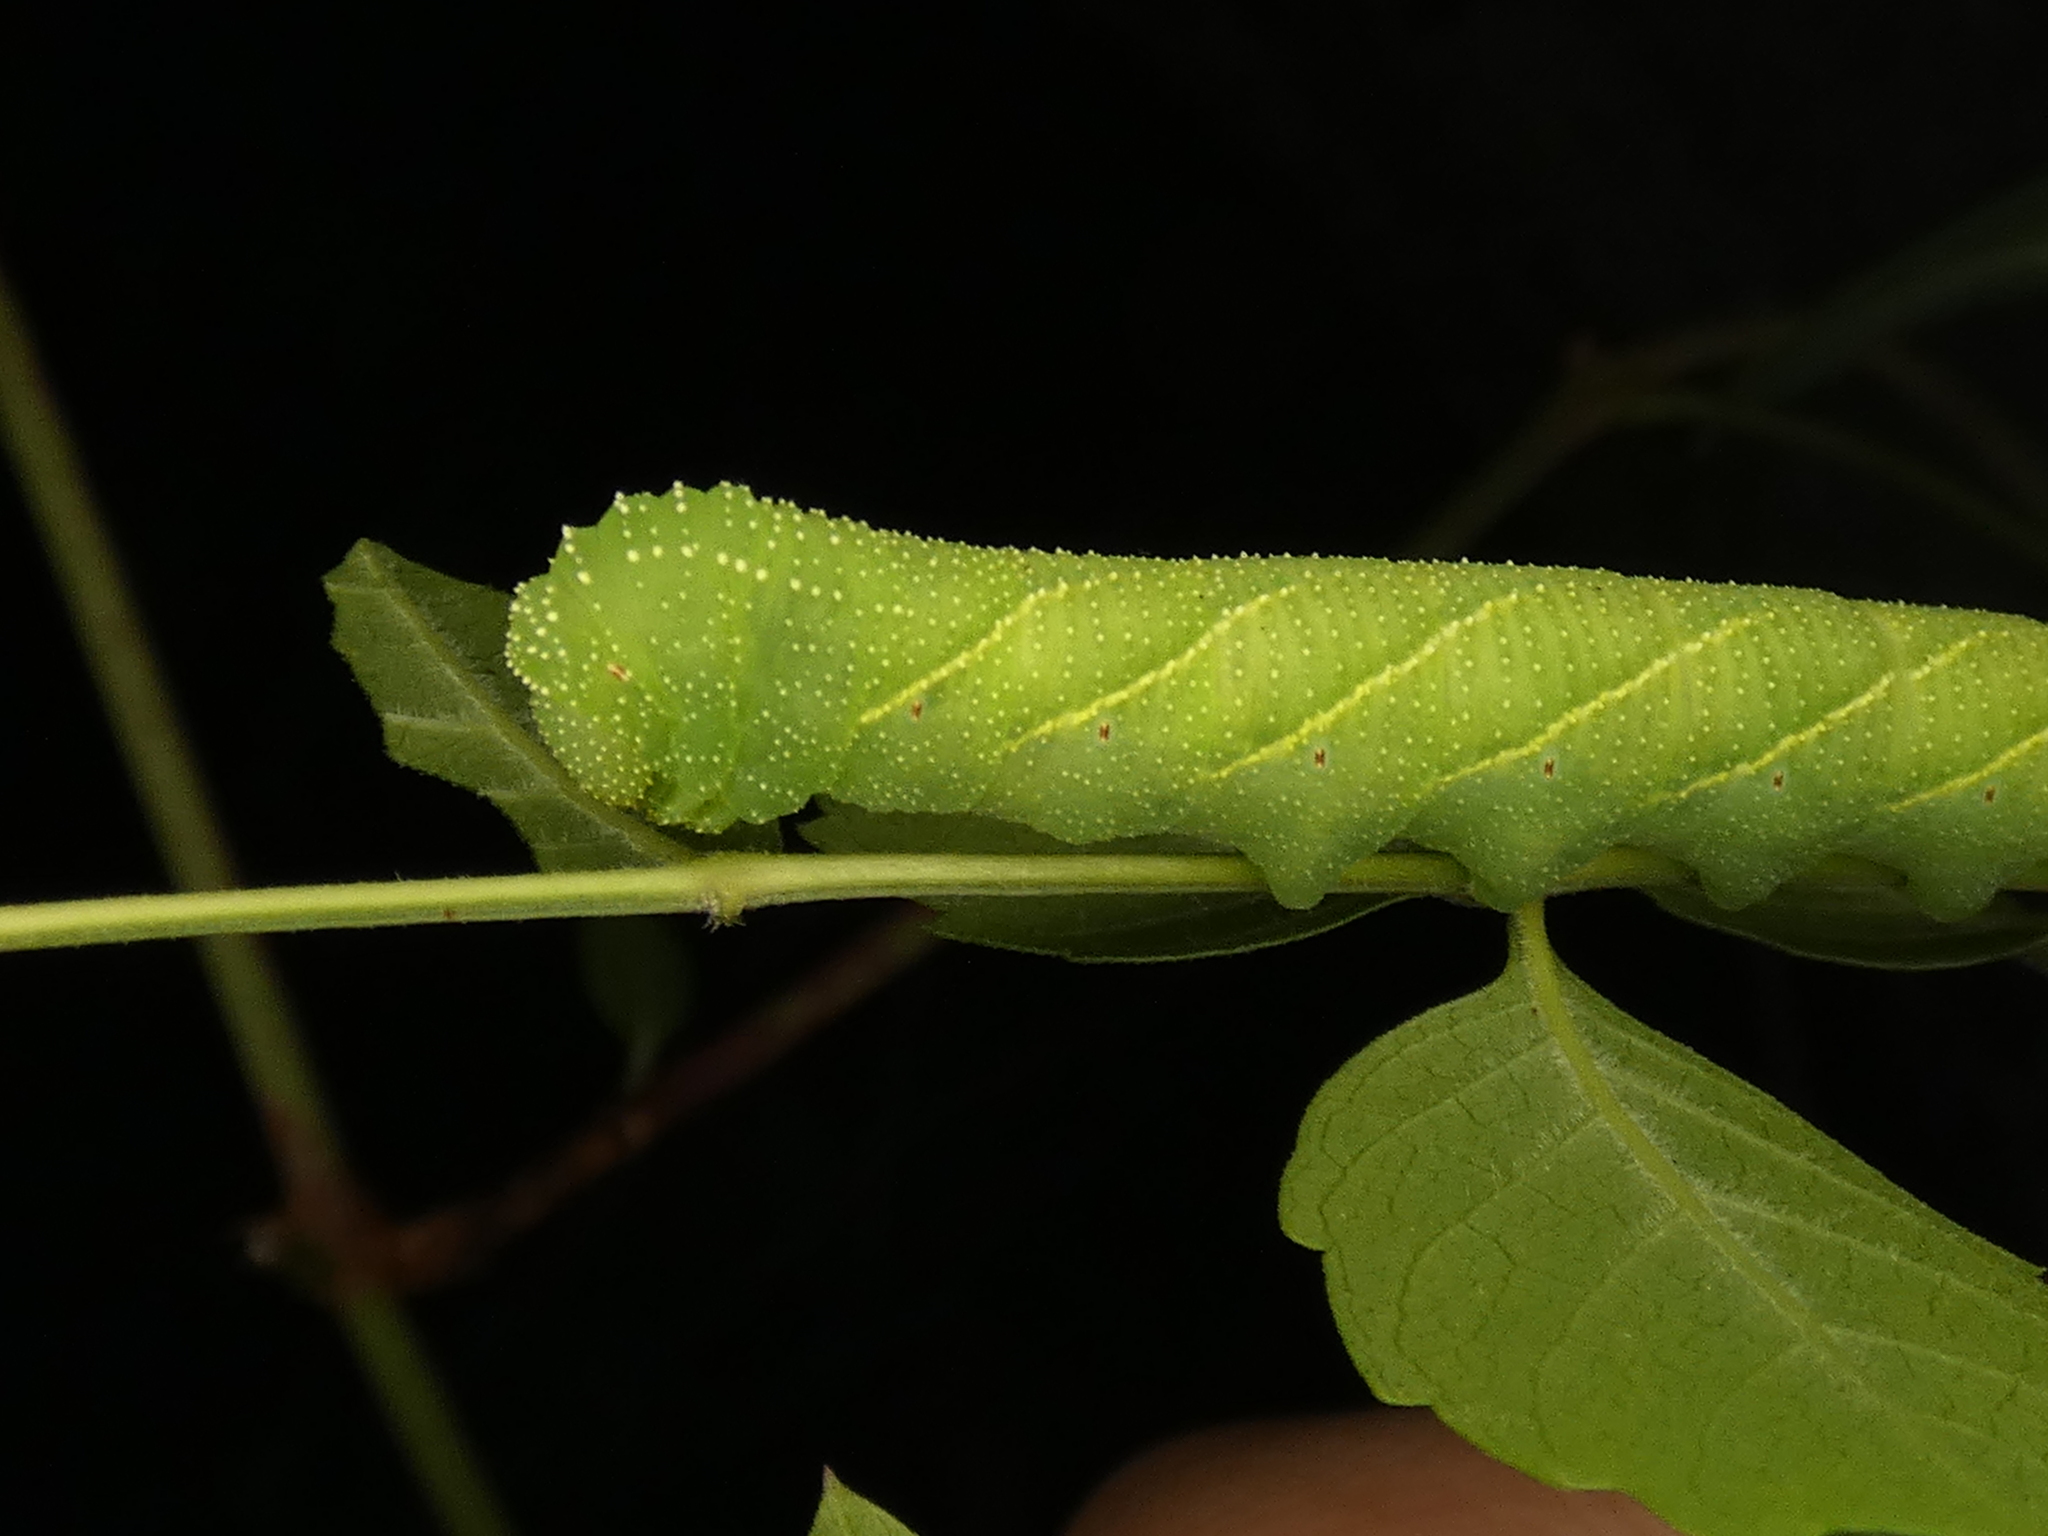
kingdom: Animalia
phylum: Arthropoda
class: Insecta
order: Lepidoptera
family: Sphingidae
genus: Paratrea
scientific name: Paratrea plebeja
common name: Plebian sphinx
